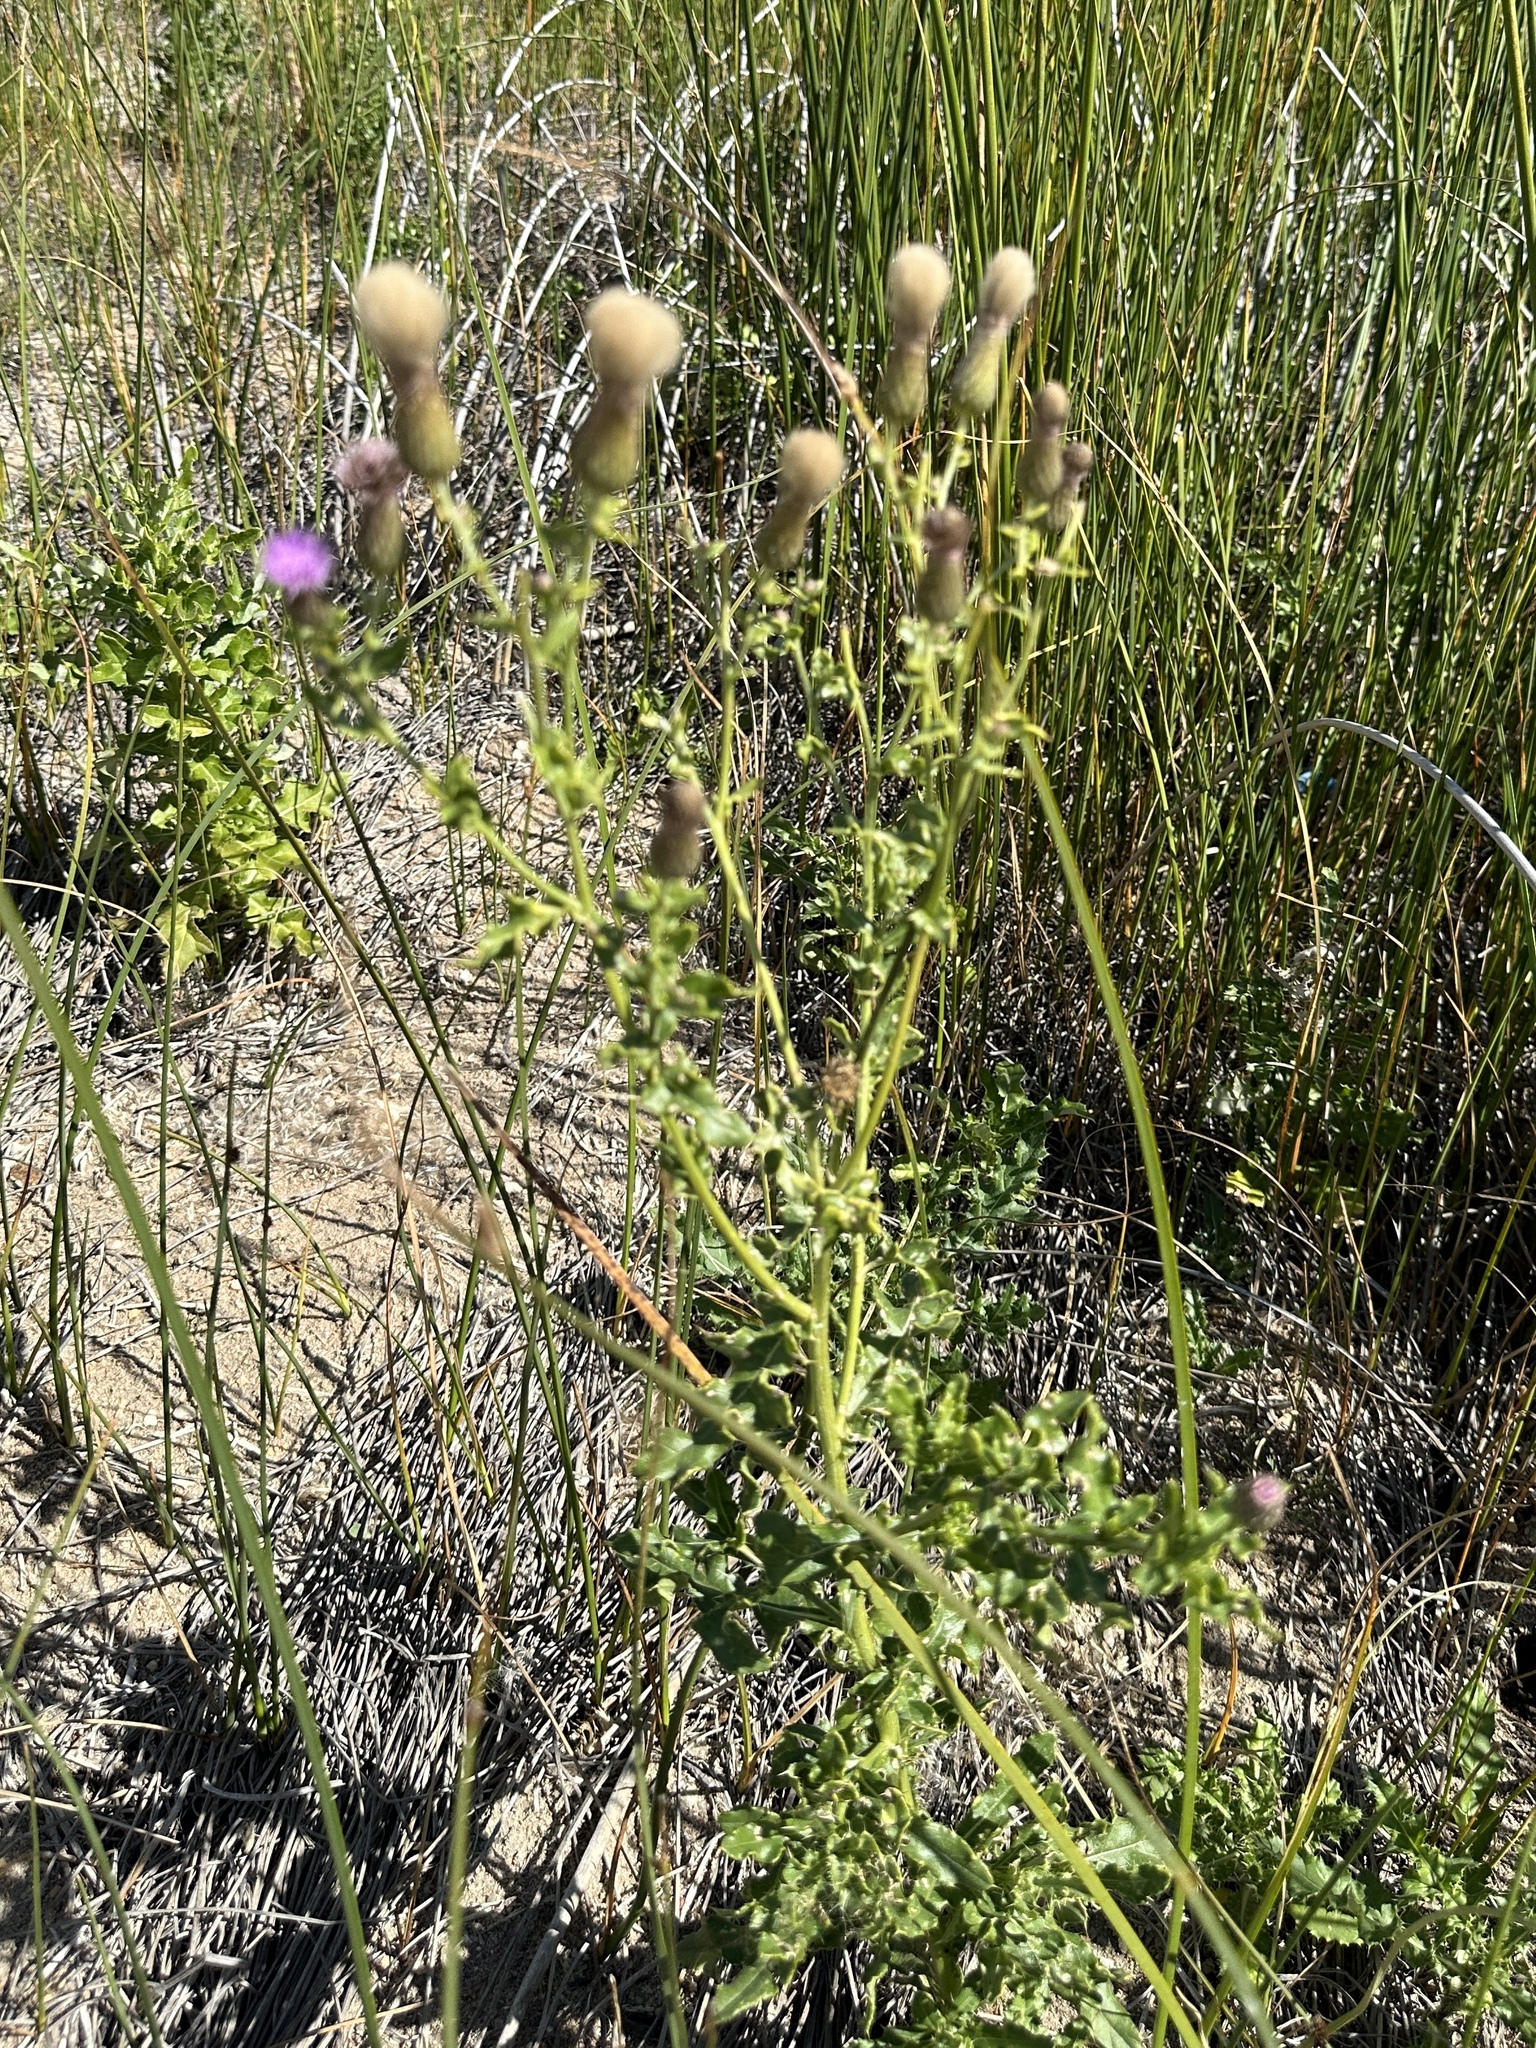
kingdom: Plantae
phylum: Tracheophyta
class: Magnoliopsida
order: Asterales
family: Asteraceae
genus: Cirsium
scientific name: Cirsium arvense
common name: Creeping thistle
